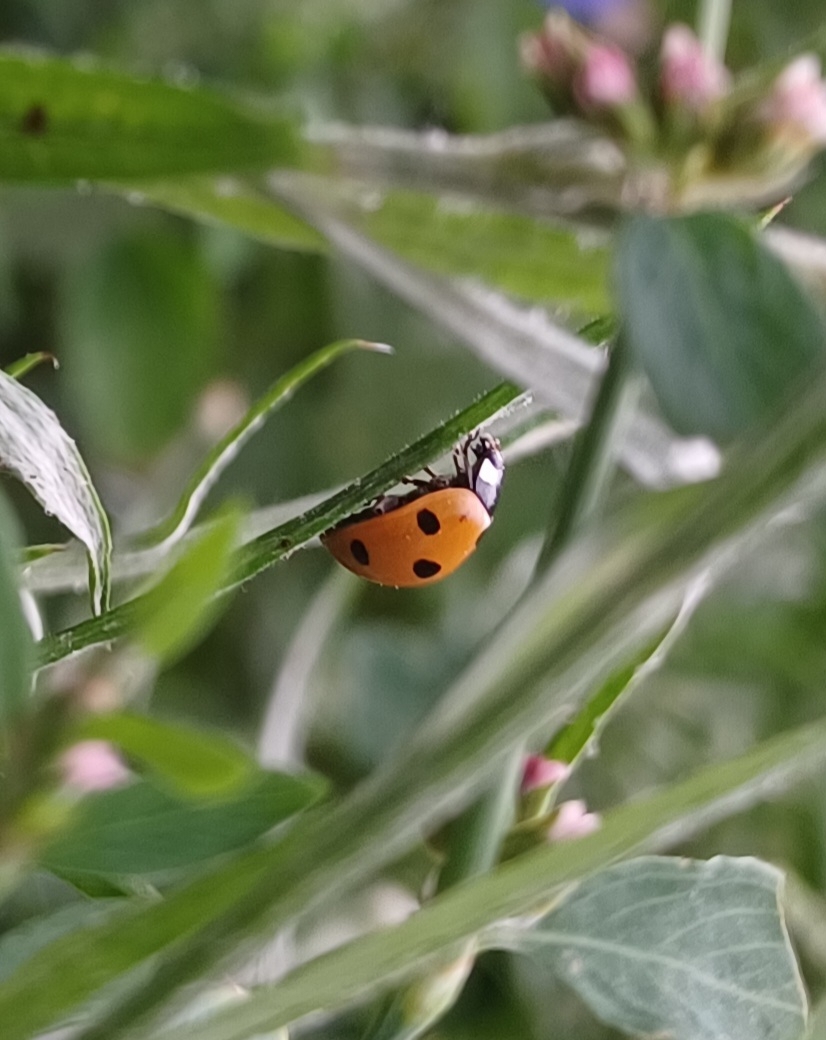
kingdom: Animalia
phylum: Arthropoda
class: Insecta
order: Coleoptera
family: Coccinellidae
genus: Coccinella
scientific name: Coccinella septempunctata
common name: Sevenspotted lady beetle
